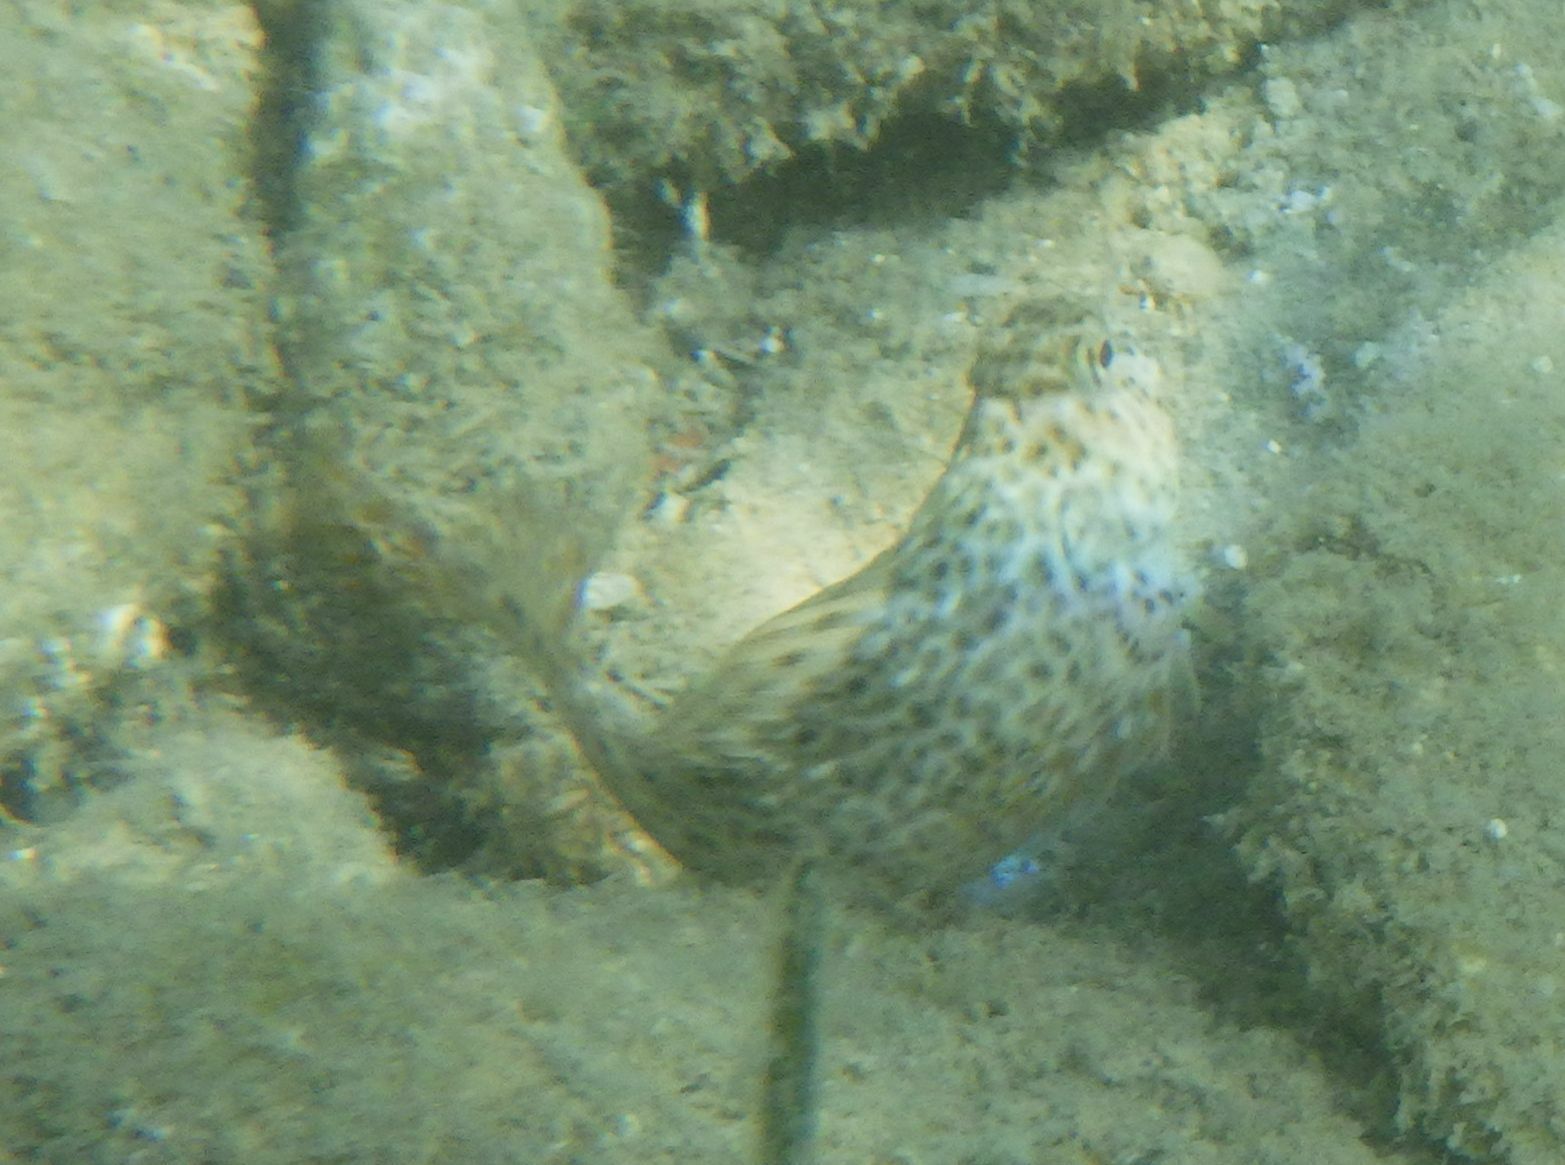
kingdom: Animalia
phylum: Chordata
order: Perciformes
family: Blenniidae
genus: Parablennius
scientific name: Parablennius sanguinolentus
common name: Black sea blenny
